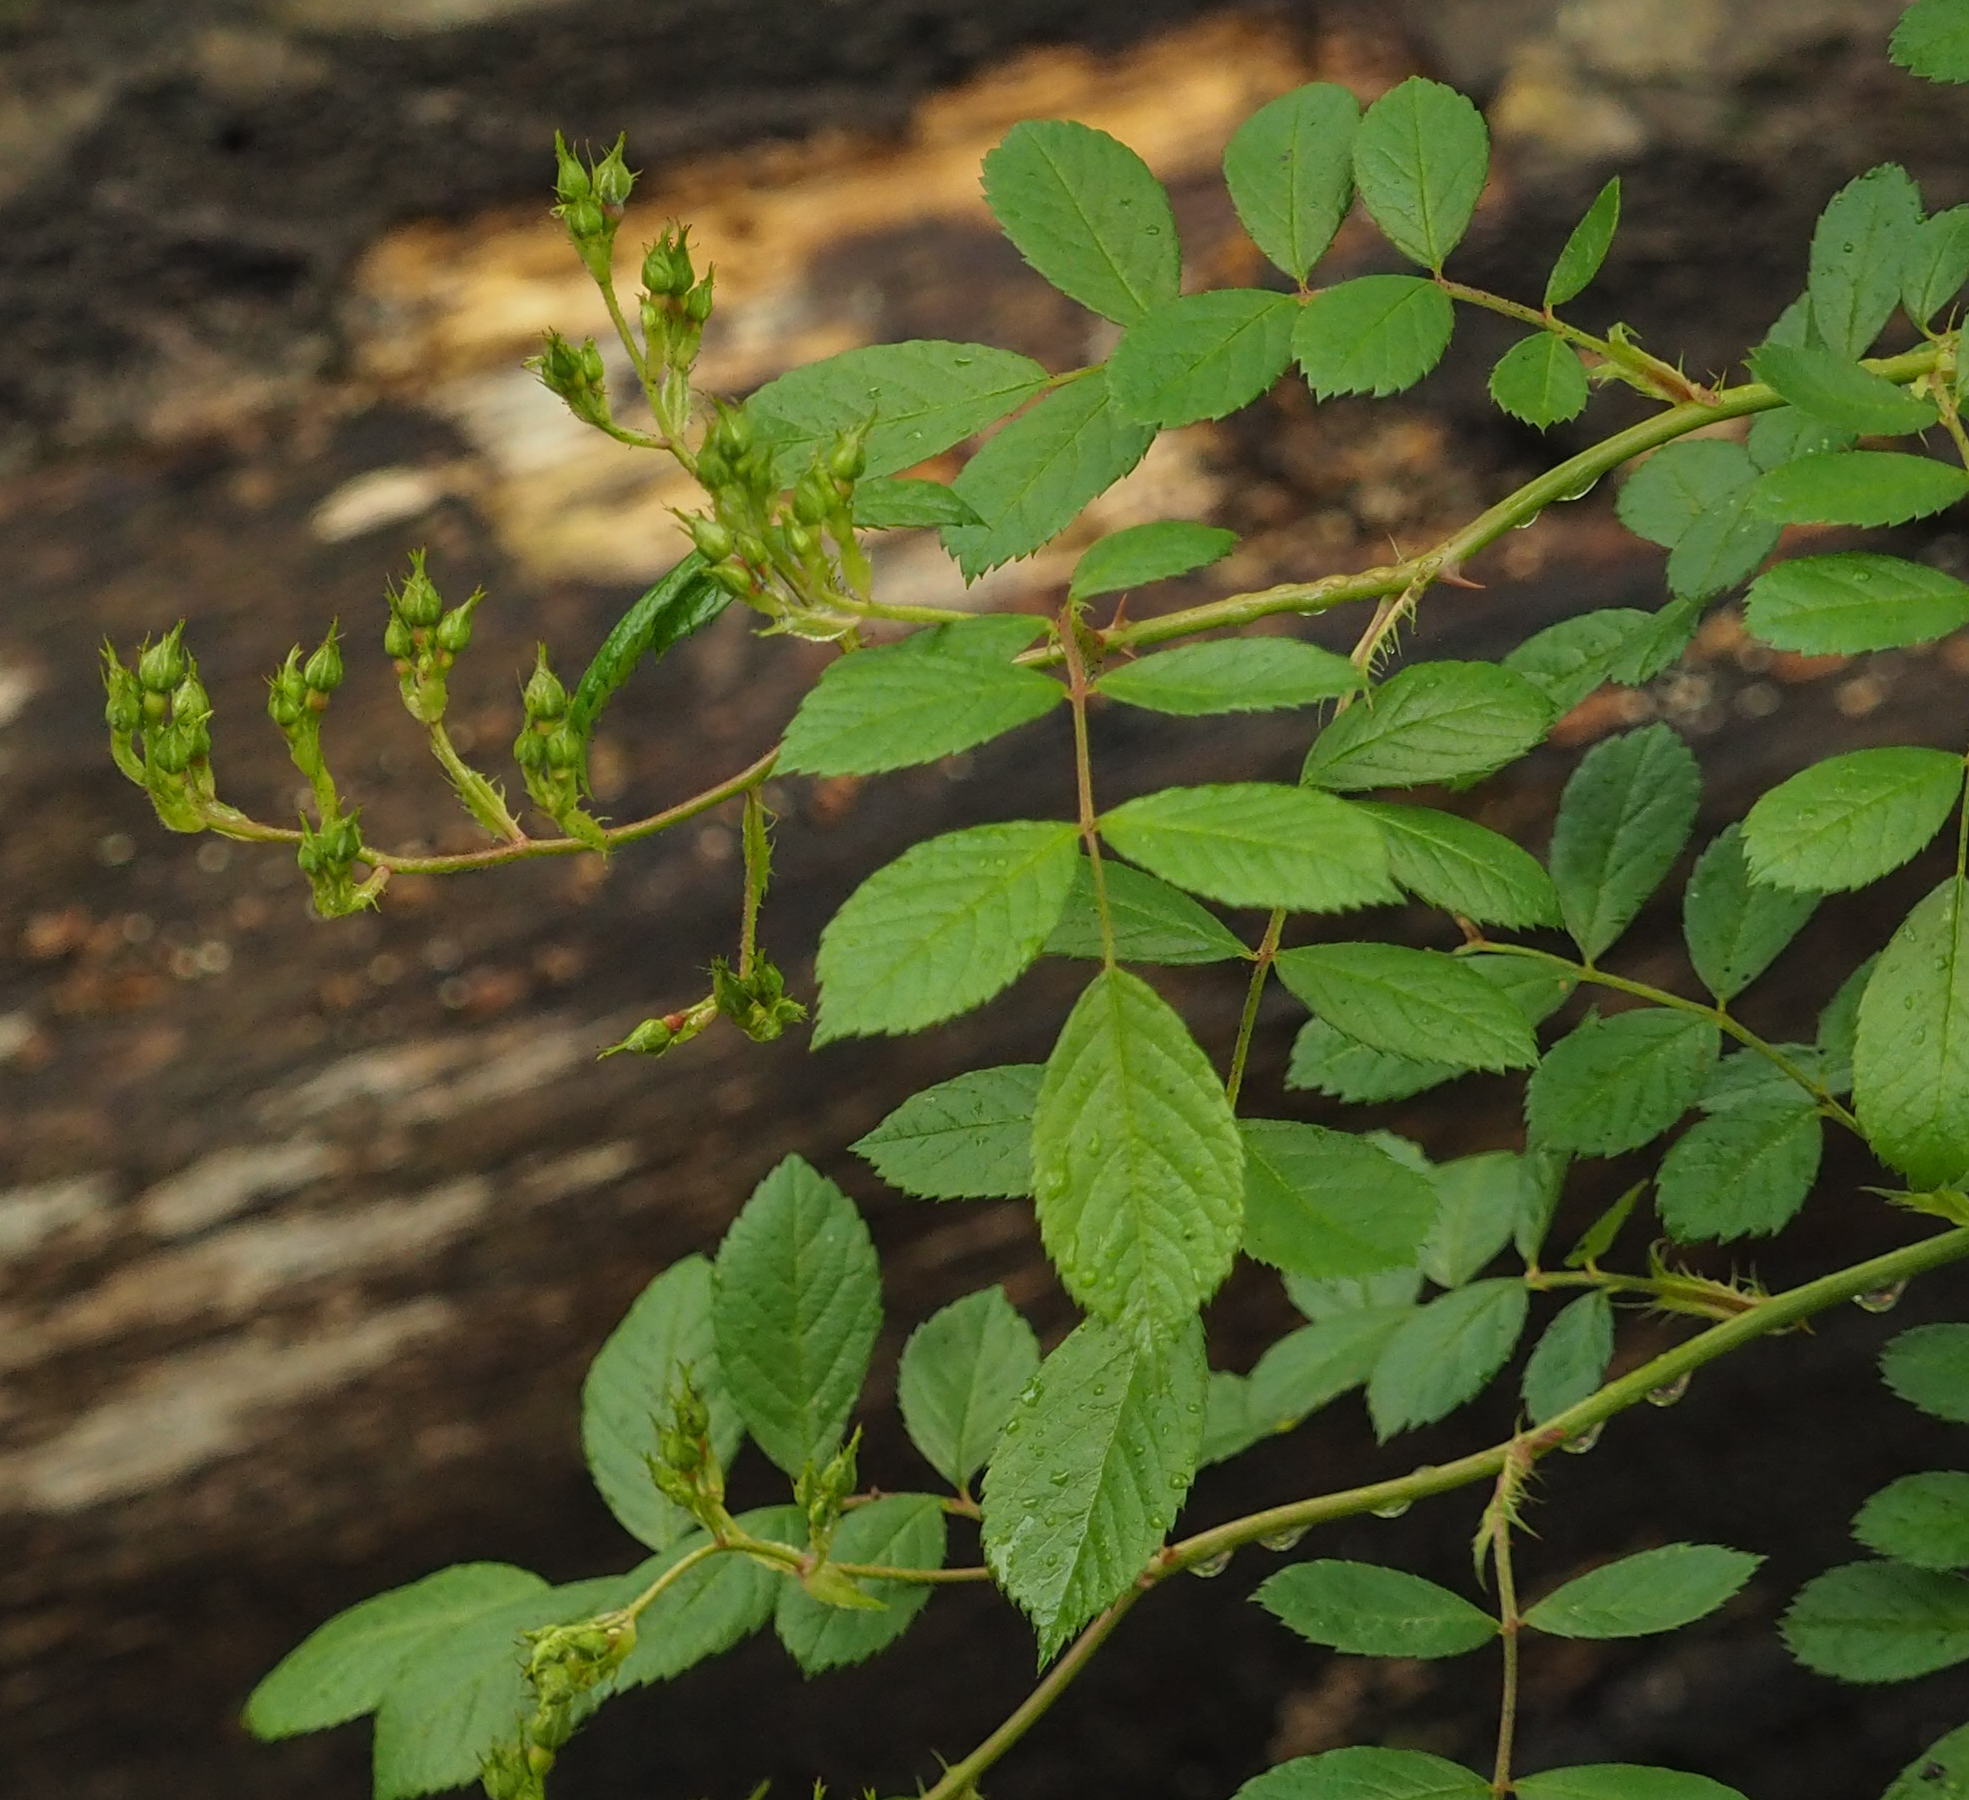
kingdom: Plantae
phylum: Tracheophyta
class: Magnoliopsida
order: Rosales
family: Rosaceae
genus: Rosa
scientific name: Rosa multiflora
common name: Multiflora rose
